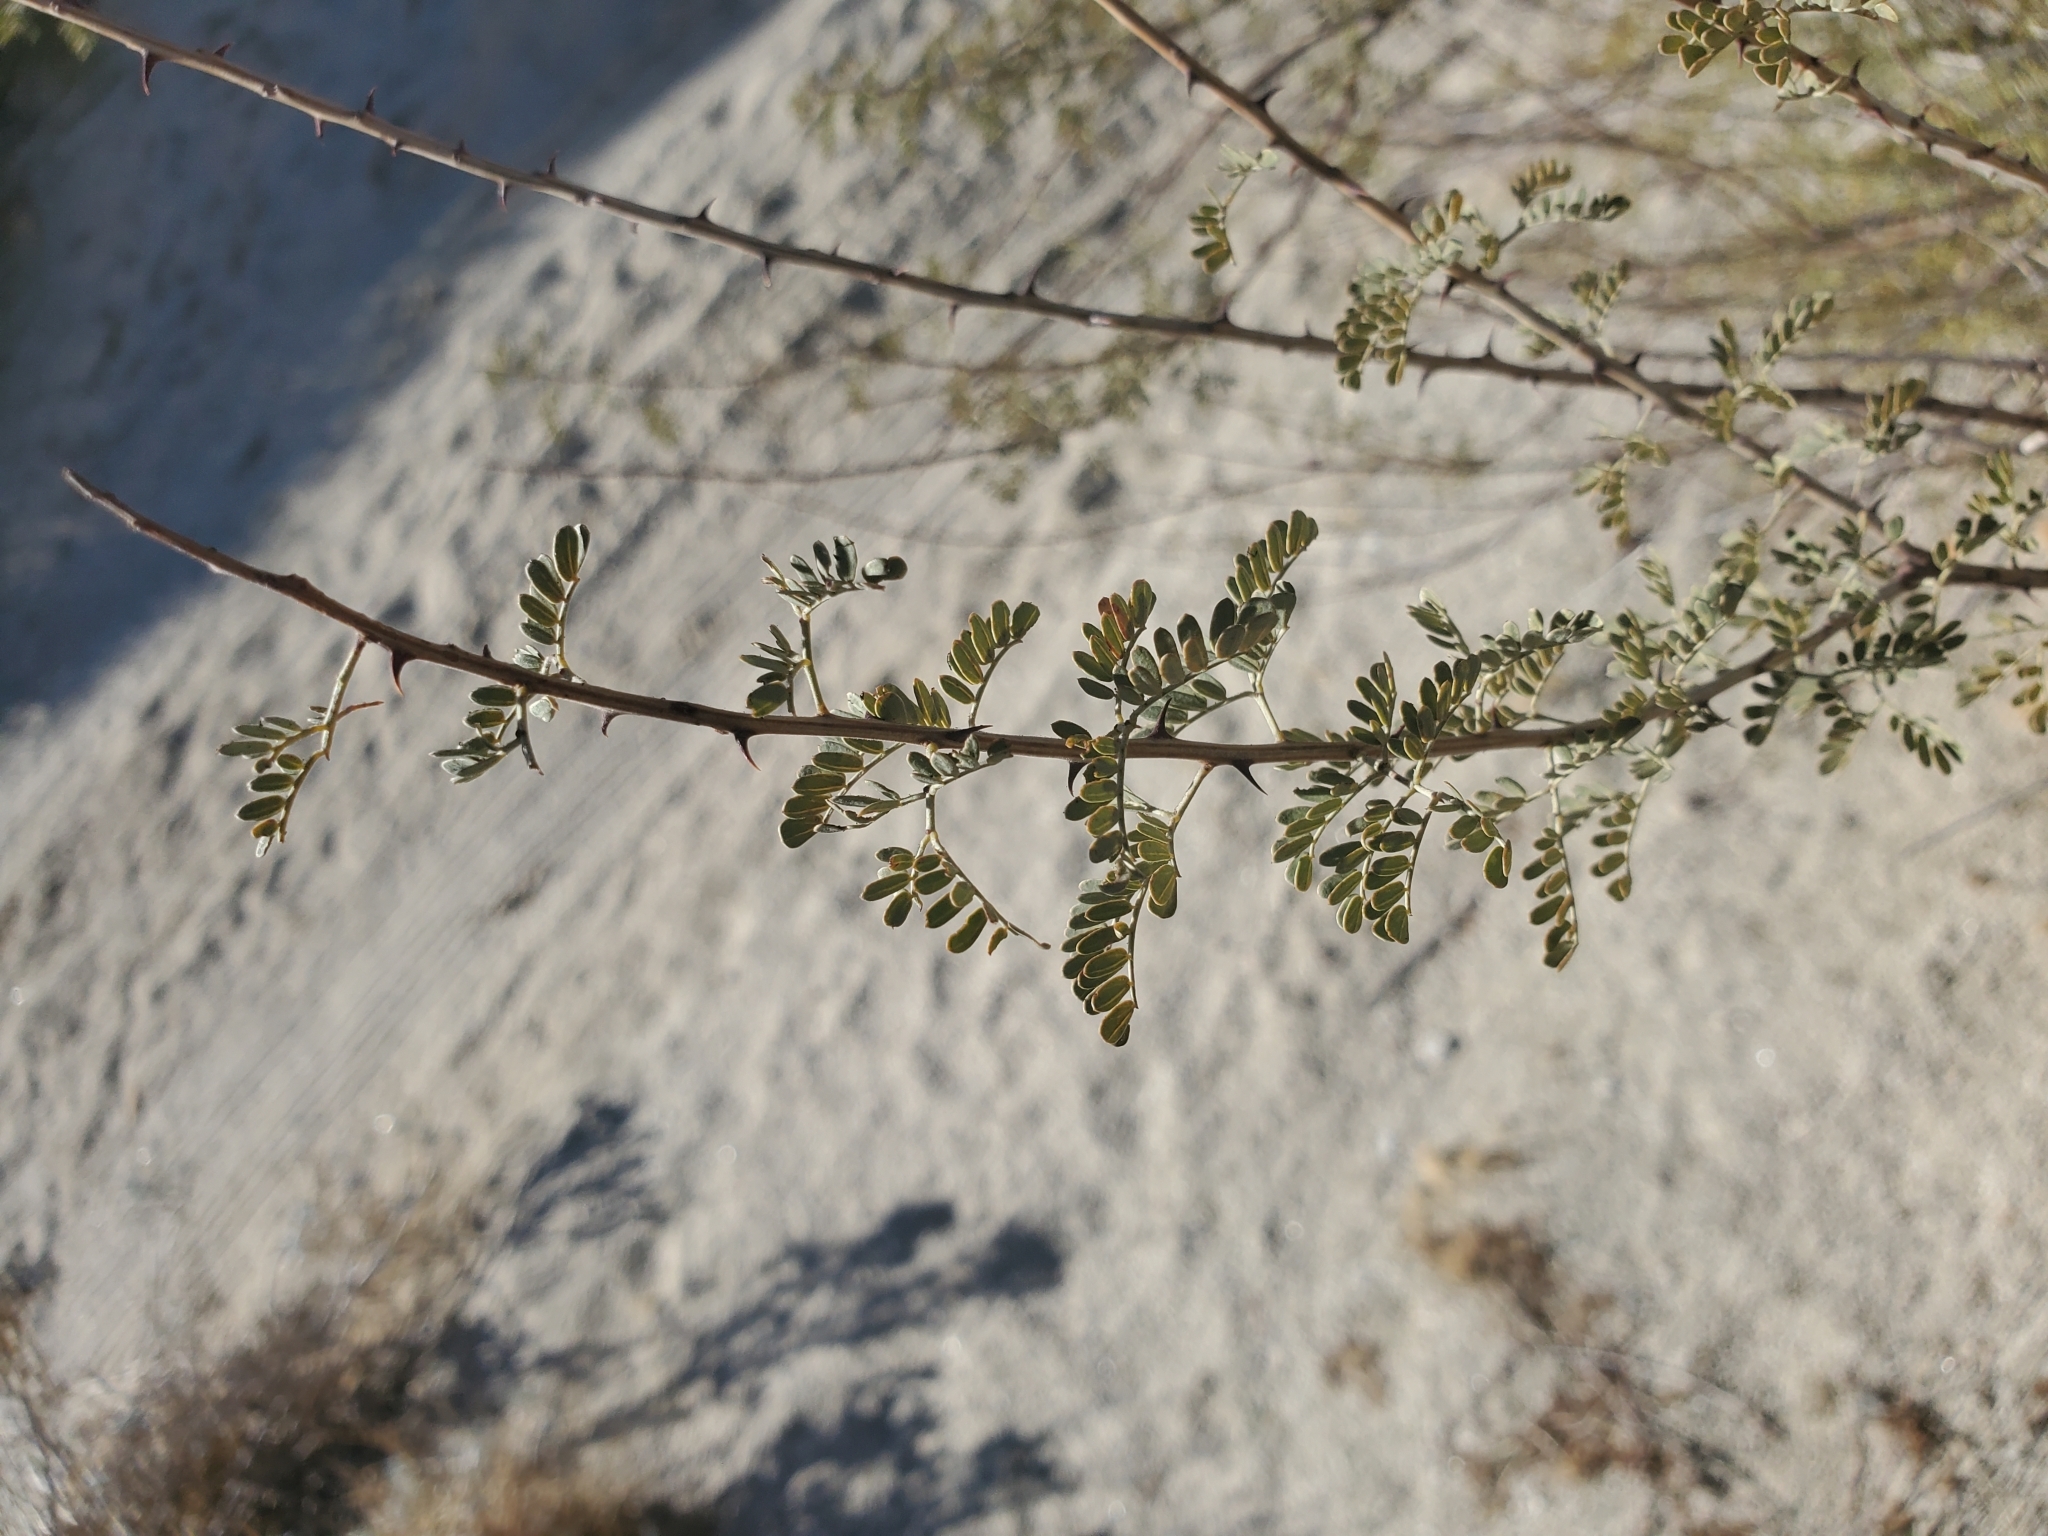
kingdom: Plantae
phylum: Tracheophyta
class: Magnoliopsida
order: Fabales
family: Fabaceae
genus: Senegalia
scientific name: Senegalia greggii
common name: Texas-mimosa
